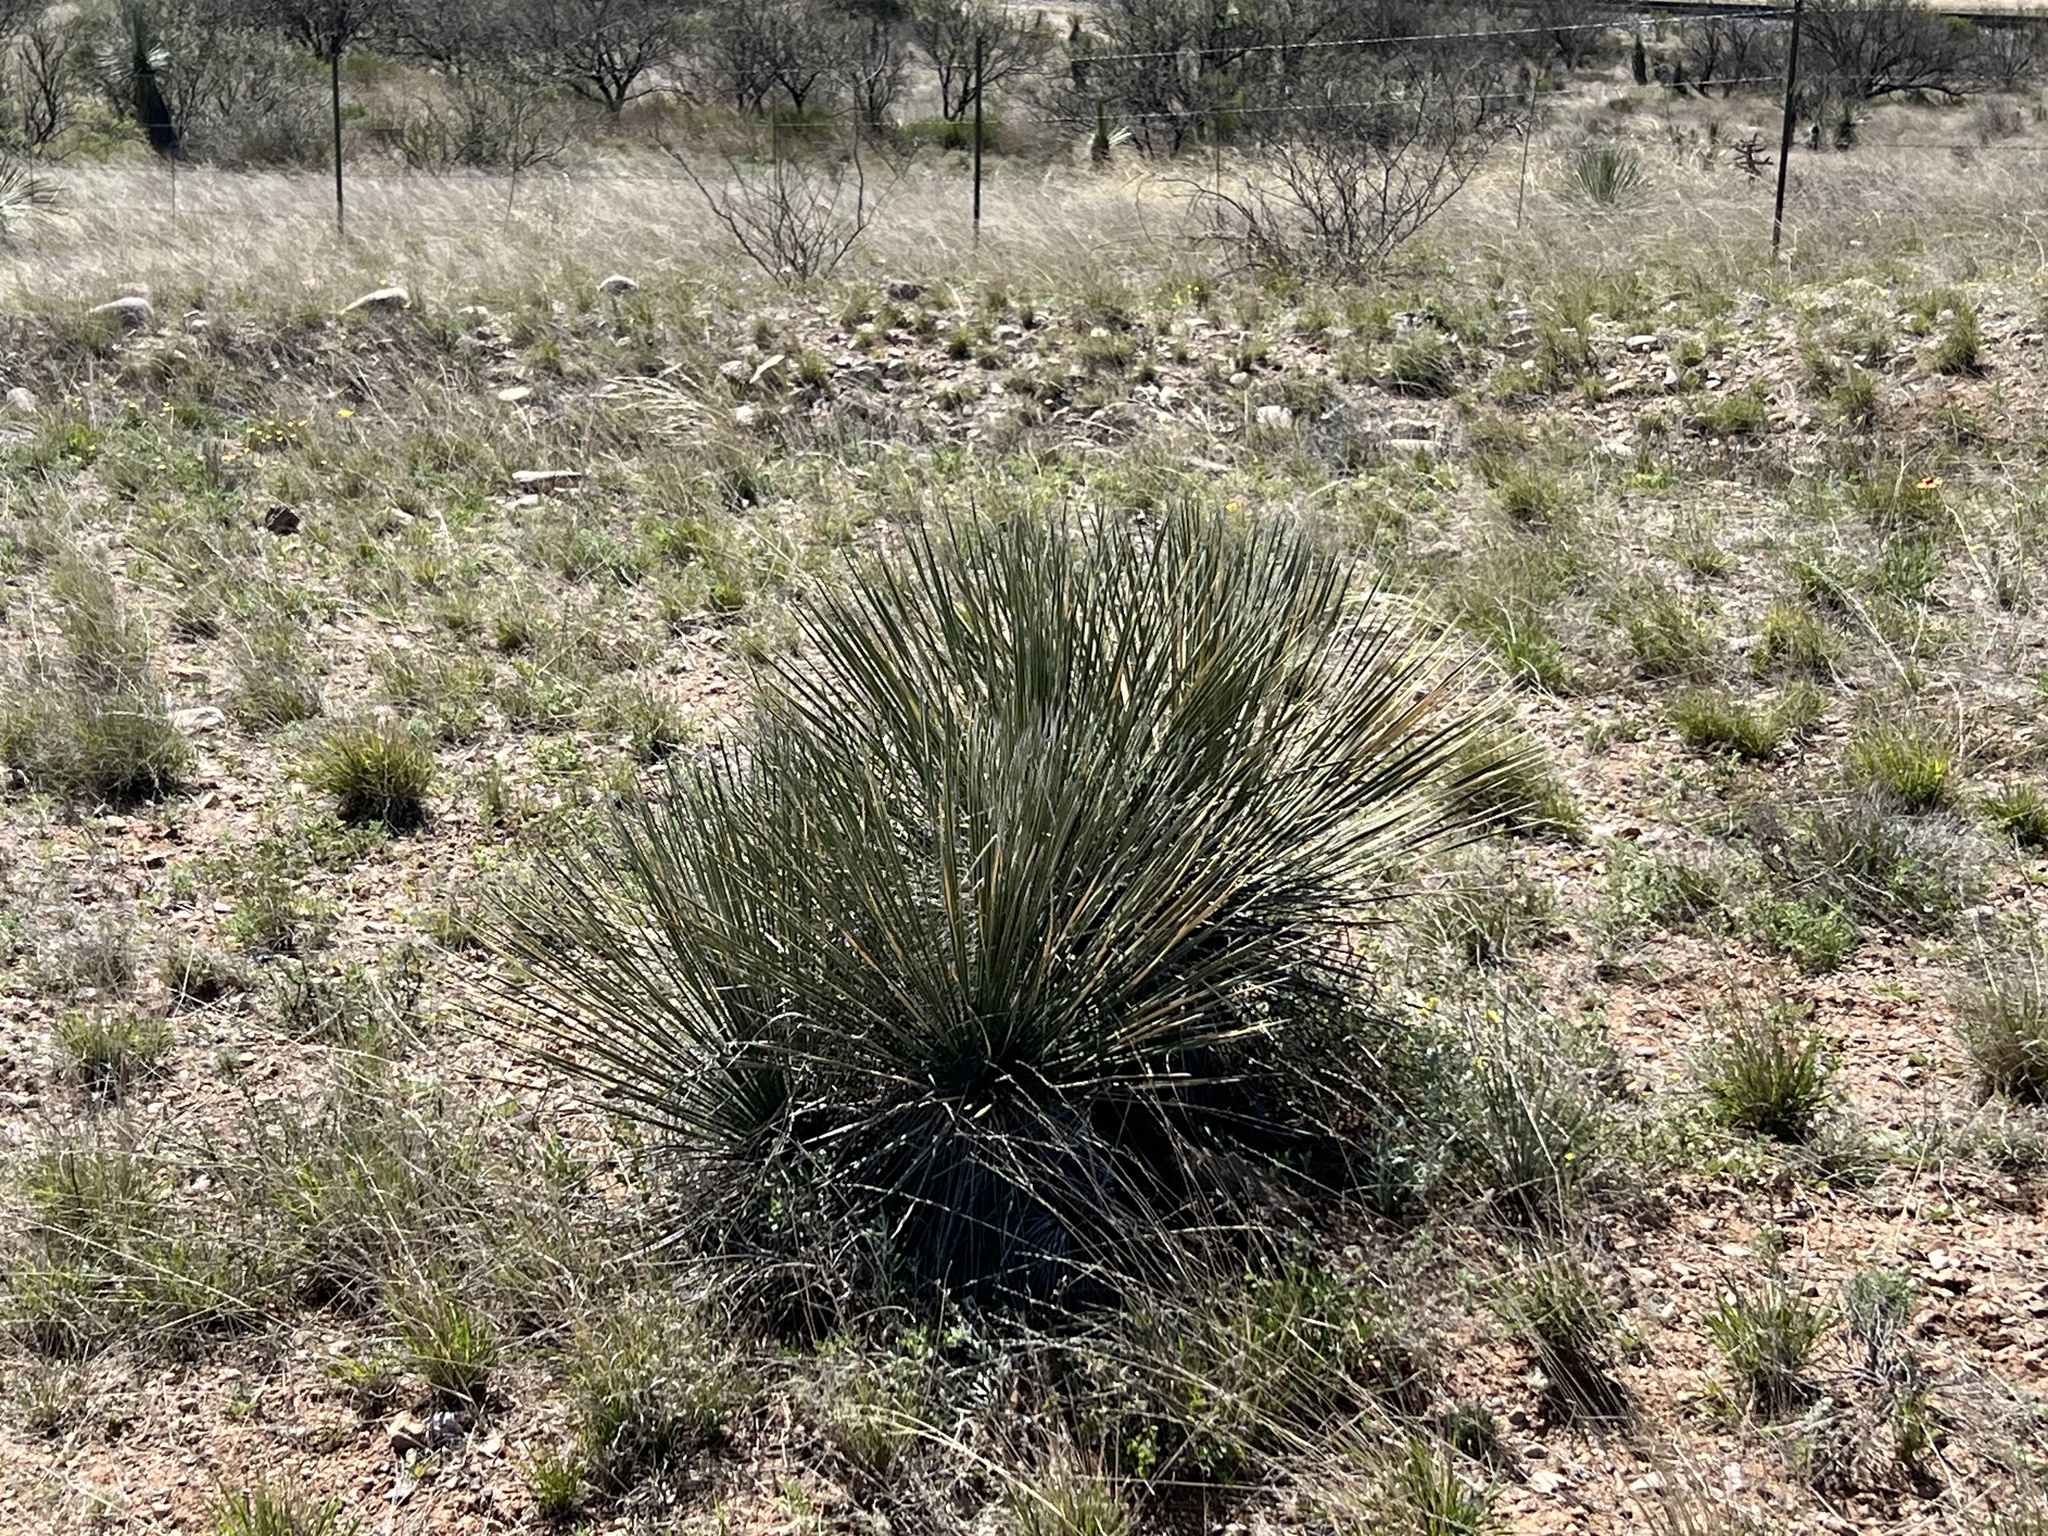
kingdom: Plantae
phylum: Tracheophyta
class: Liliopsida
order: Asparagales
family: Asparagaceae
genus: Yucca
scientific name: Yucca elata
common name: Palmella
